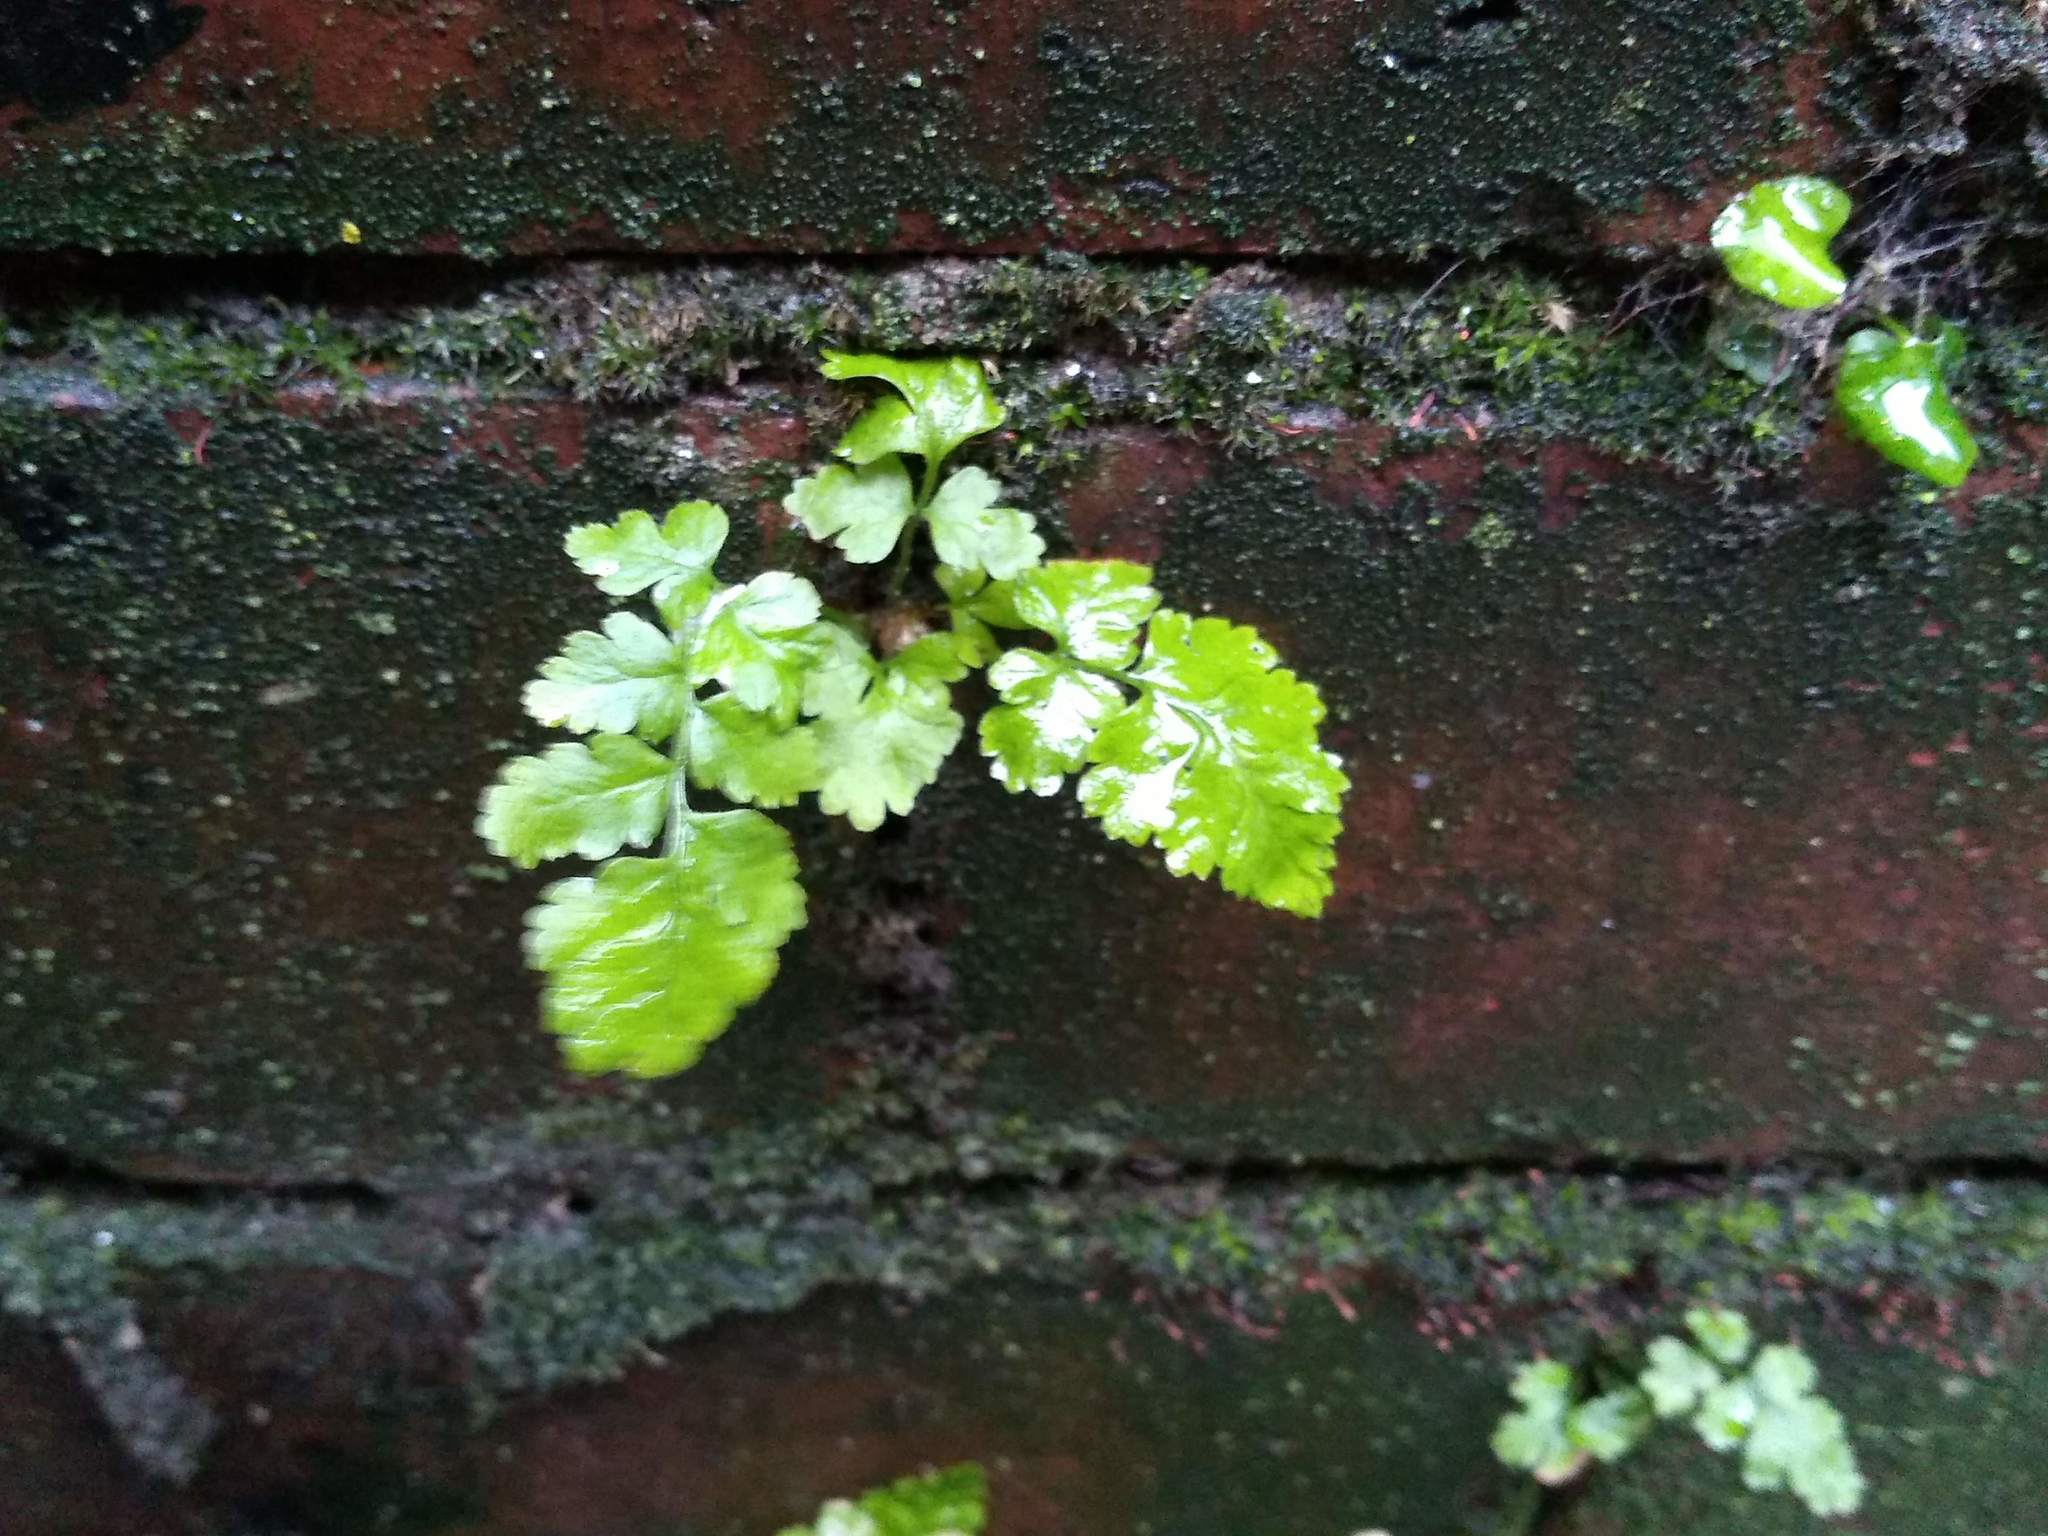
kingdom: Plantae
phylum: Tracheophyta
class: Polypodiopsida
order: Polypodiales
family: Aspleniaceae
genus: Asplenium
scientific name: Asplenium adiantum-nigrum
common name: Black spleenwort
